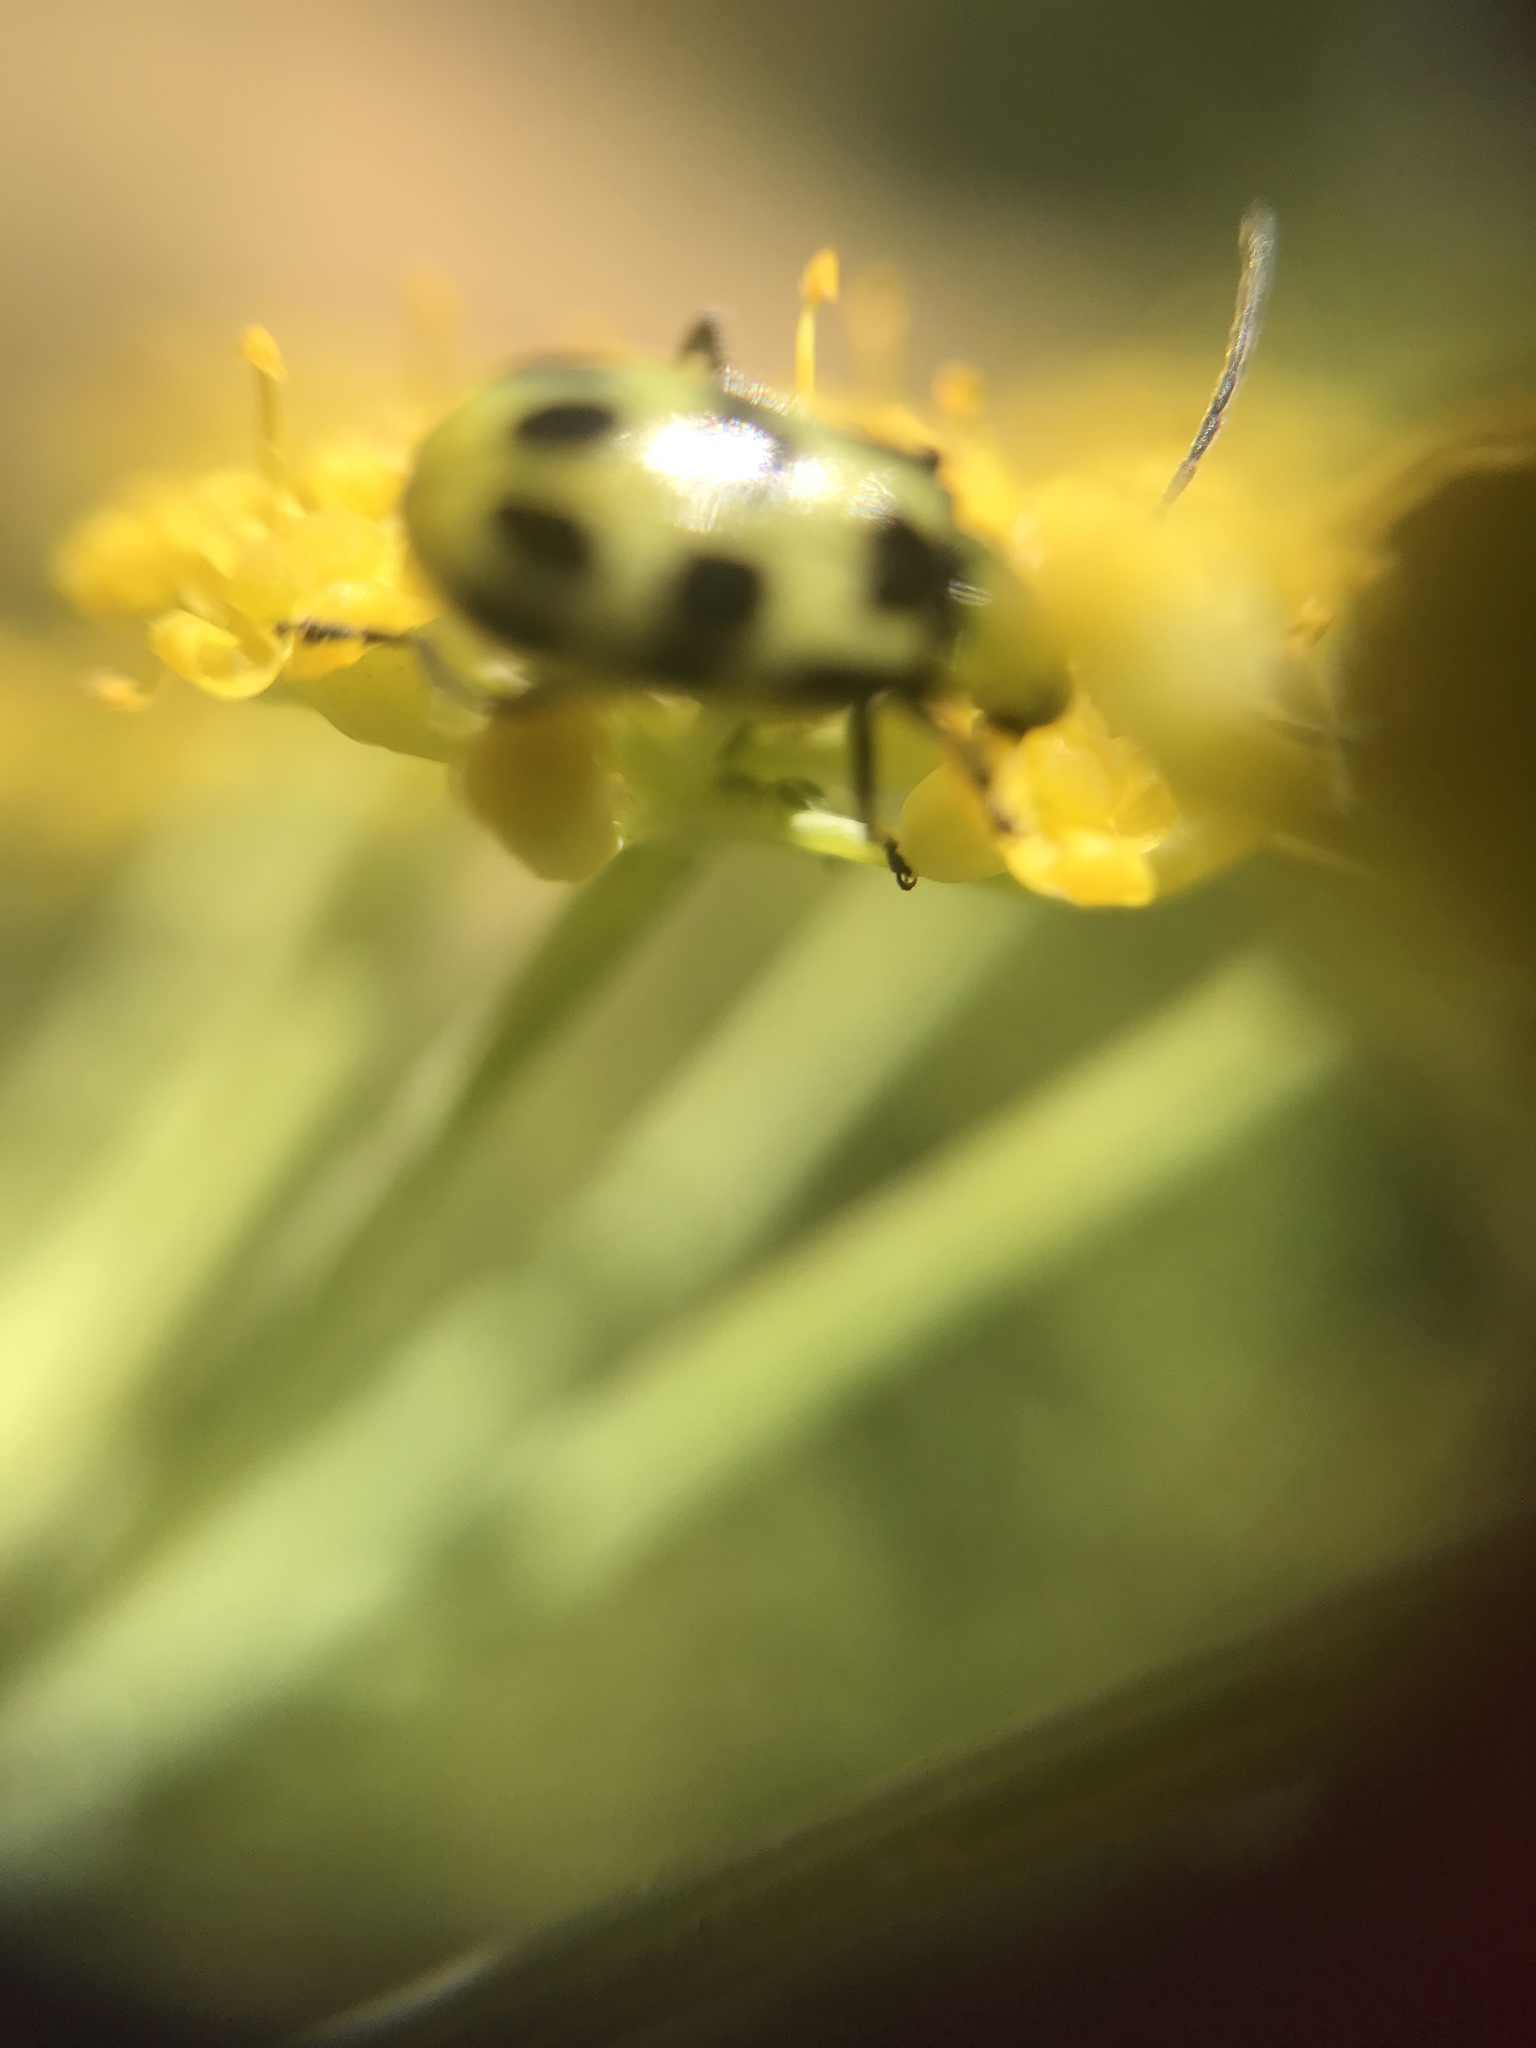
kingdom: Animalia
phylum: Arthropoda
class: Insecta
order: Coleoptera
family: Chrysomelidae
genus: Diabrotica
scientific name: Diabrotica undecimpunctata
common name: Spotted cucumber beetle
